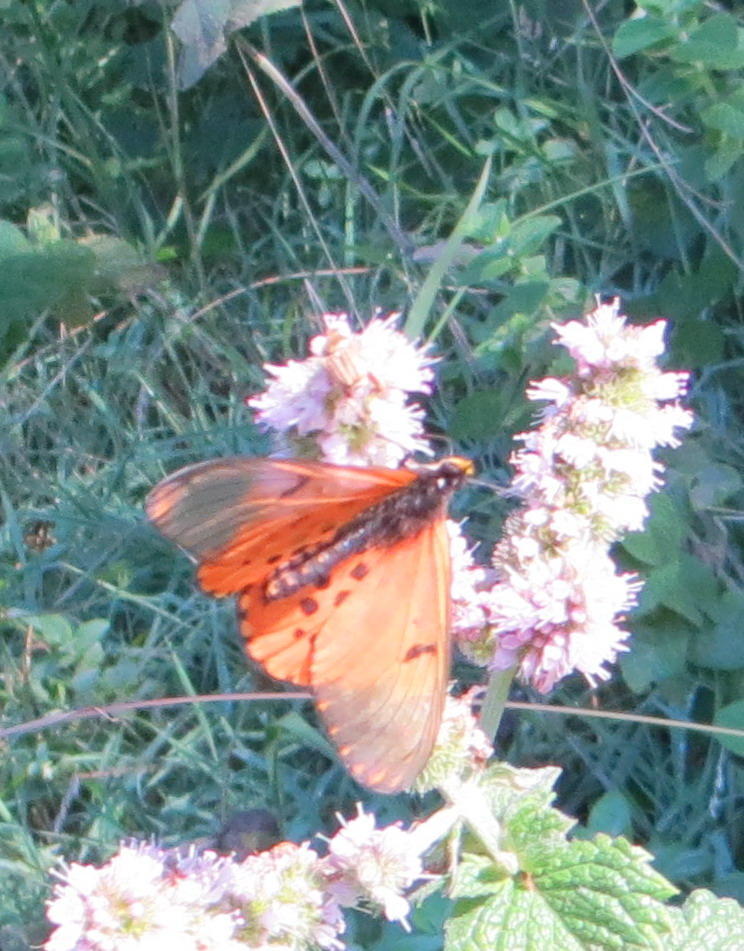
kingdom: Animalia
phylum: Arthropoda
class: Insecta
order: Lepidoptera
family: Nymphalidae
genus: Acraea
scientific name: Acraea horta
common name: Garden acraea
